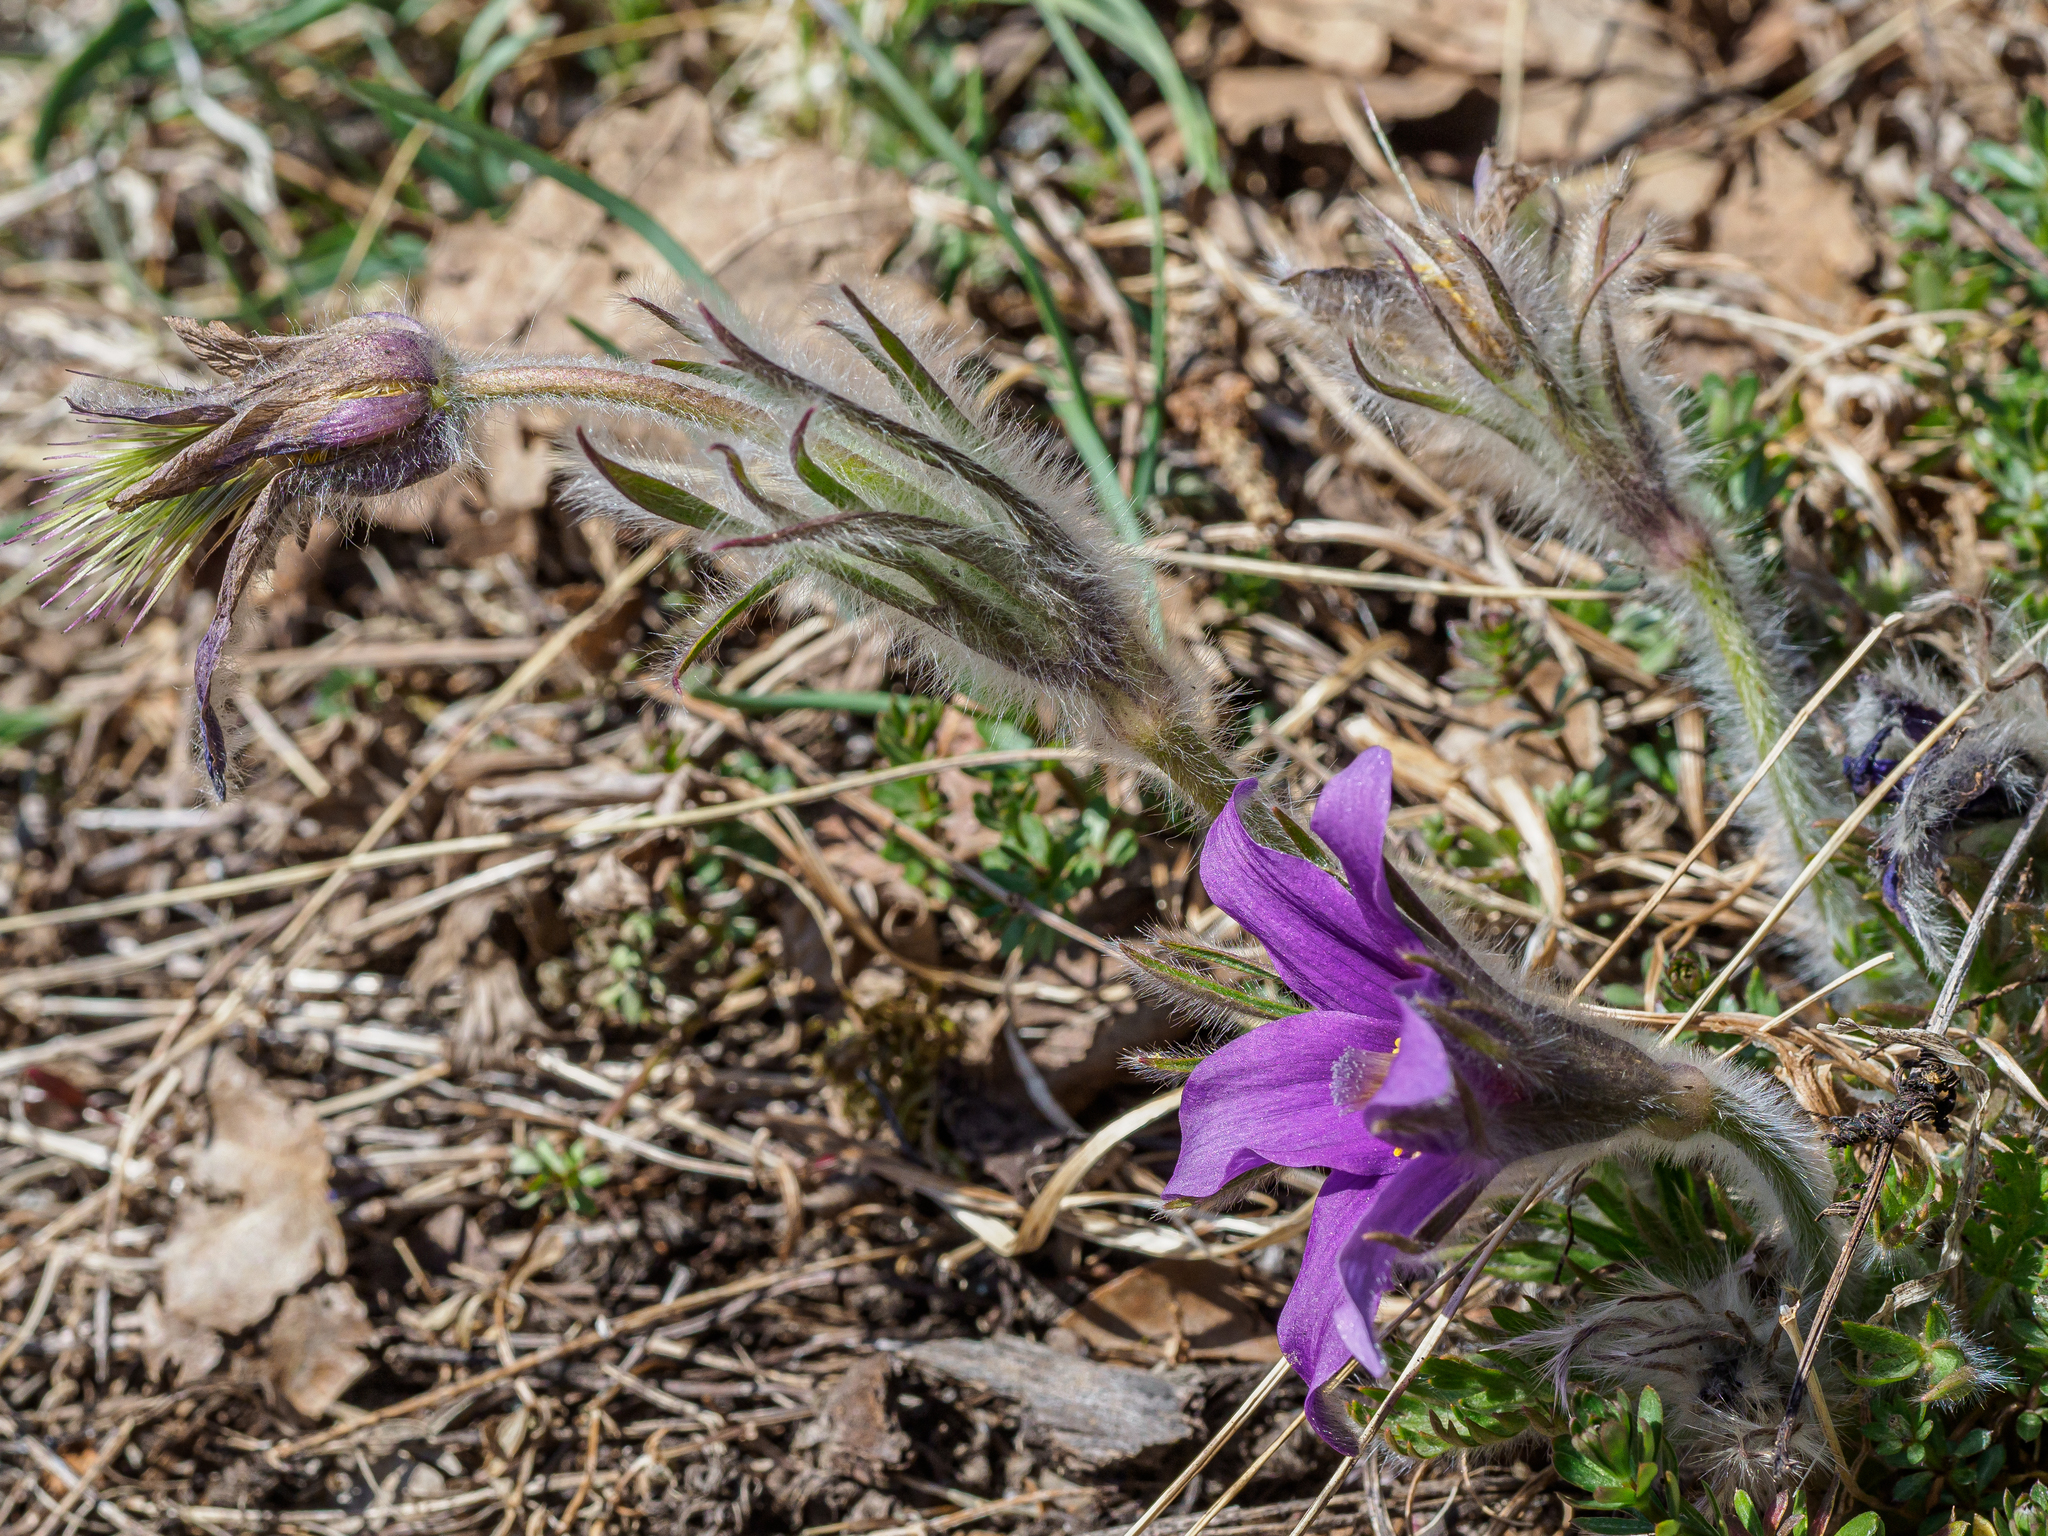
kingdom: Plantae
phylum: Tracheophyta
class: Magnoliopsida
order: Ranunculales
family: Ranunculaceae
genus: Pulsatilla
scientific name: Pulsatilla halleri
